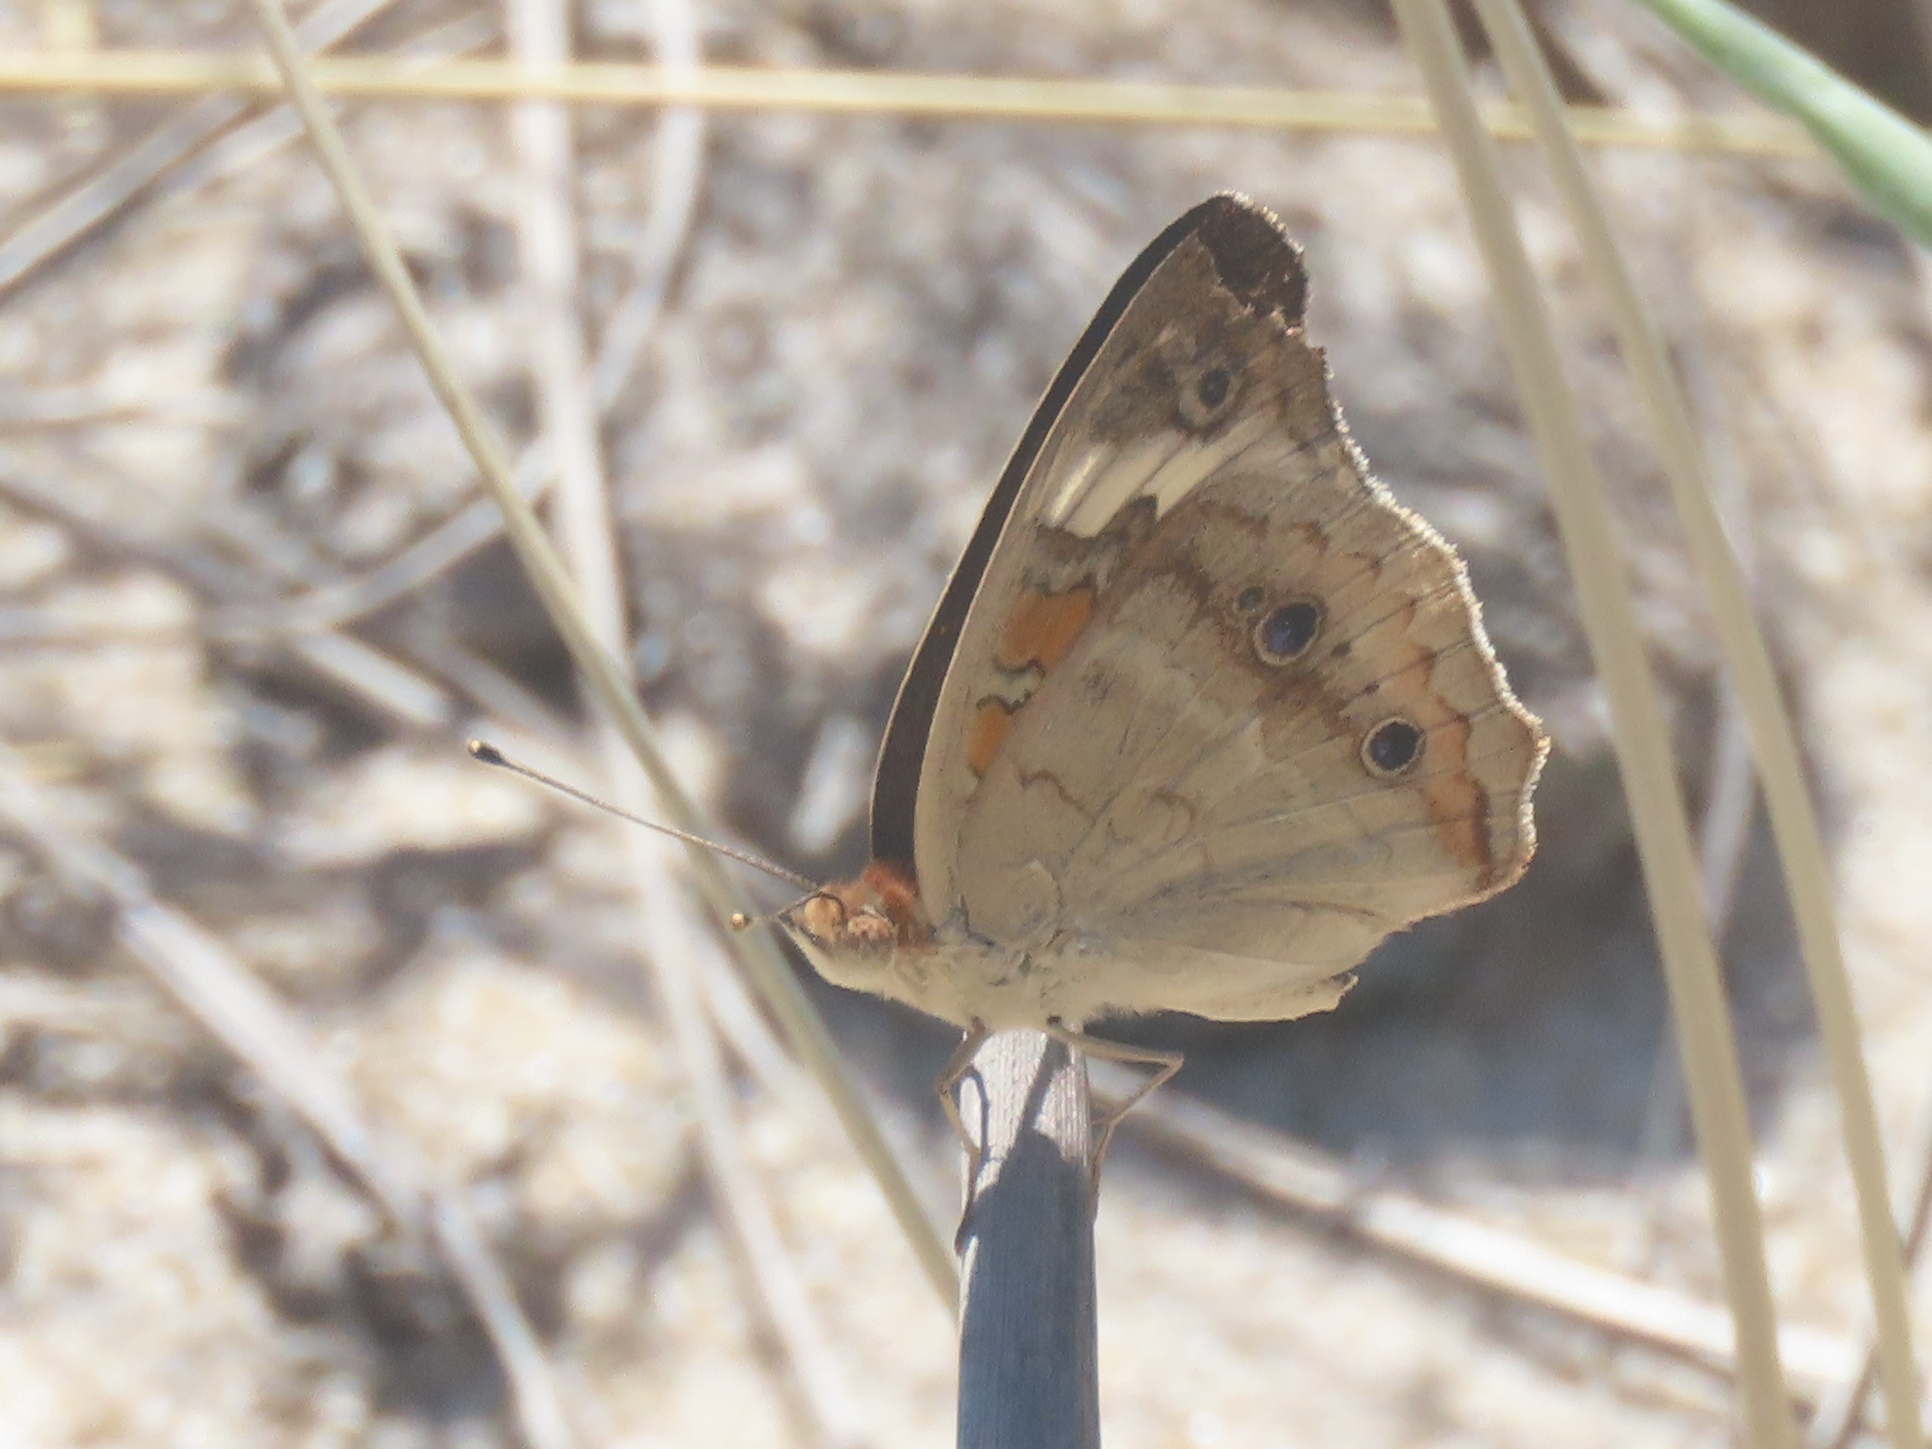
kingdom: Animalia
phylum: Arthropoda
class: Insecta
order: Lepidoptera
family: Nymphalidae
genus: Junonia
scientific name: Junonia coenia
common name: Common buckeye
